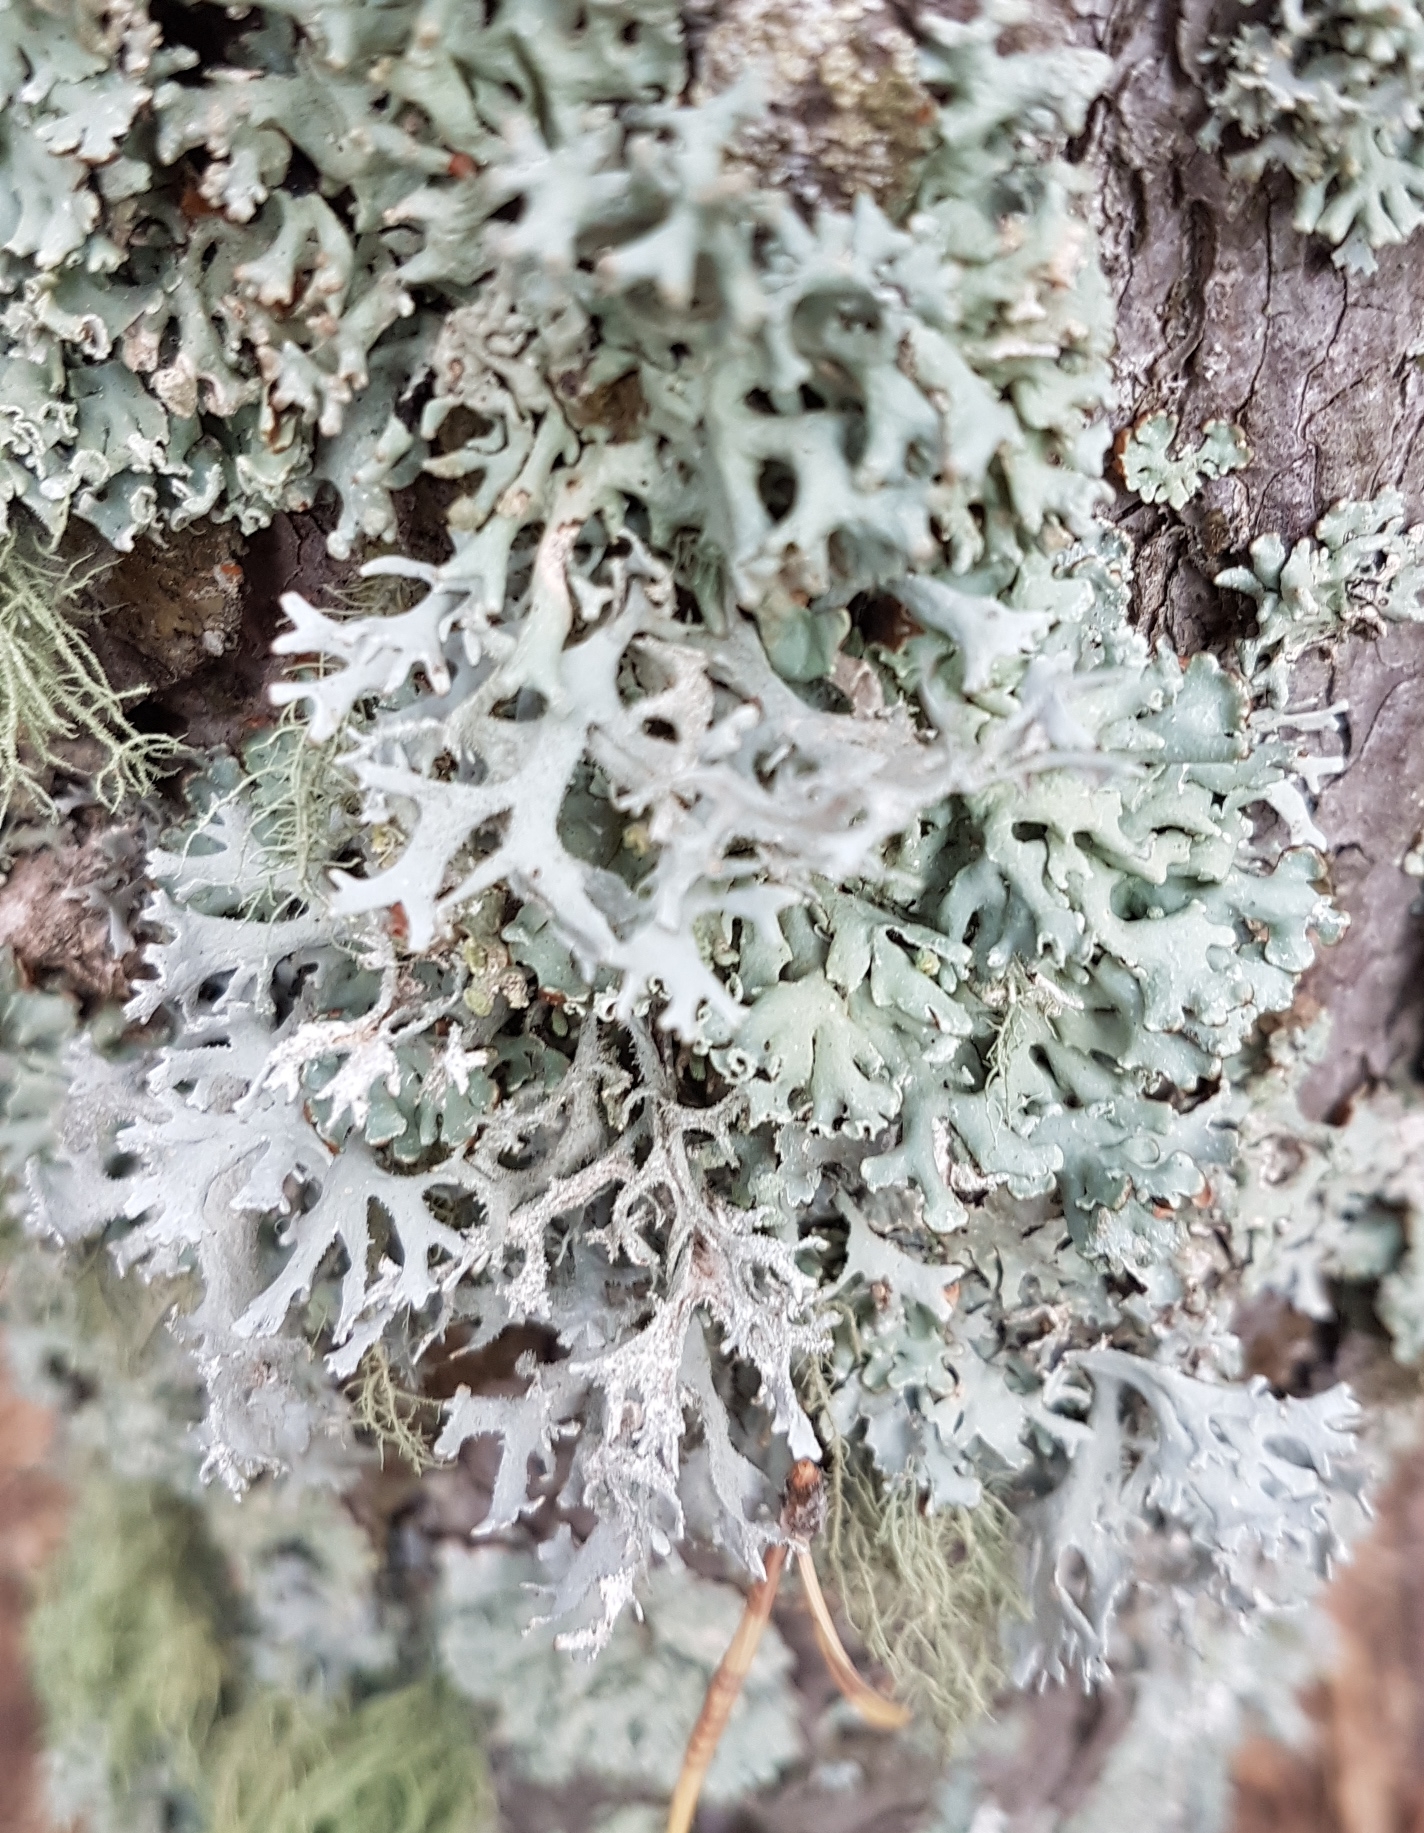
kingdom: Fungi
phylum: Ascomycota
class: Lecanoromycetes
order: Lecanorales
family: Parmeliaceae
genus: Pseudevernia
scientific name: Pseudevernia furfuracea
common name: Tree moss
